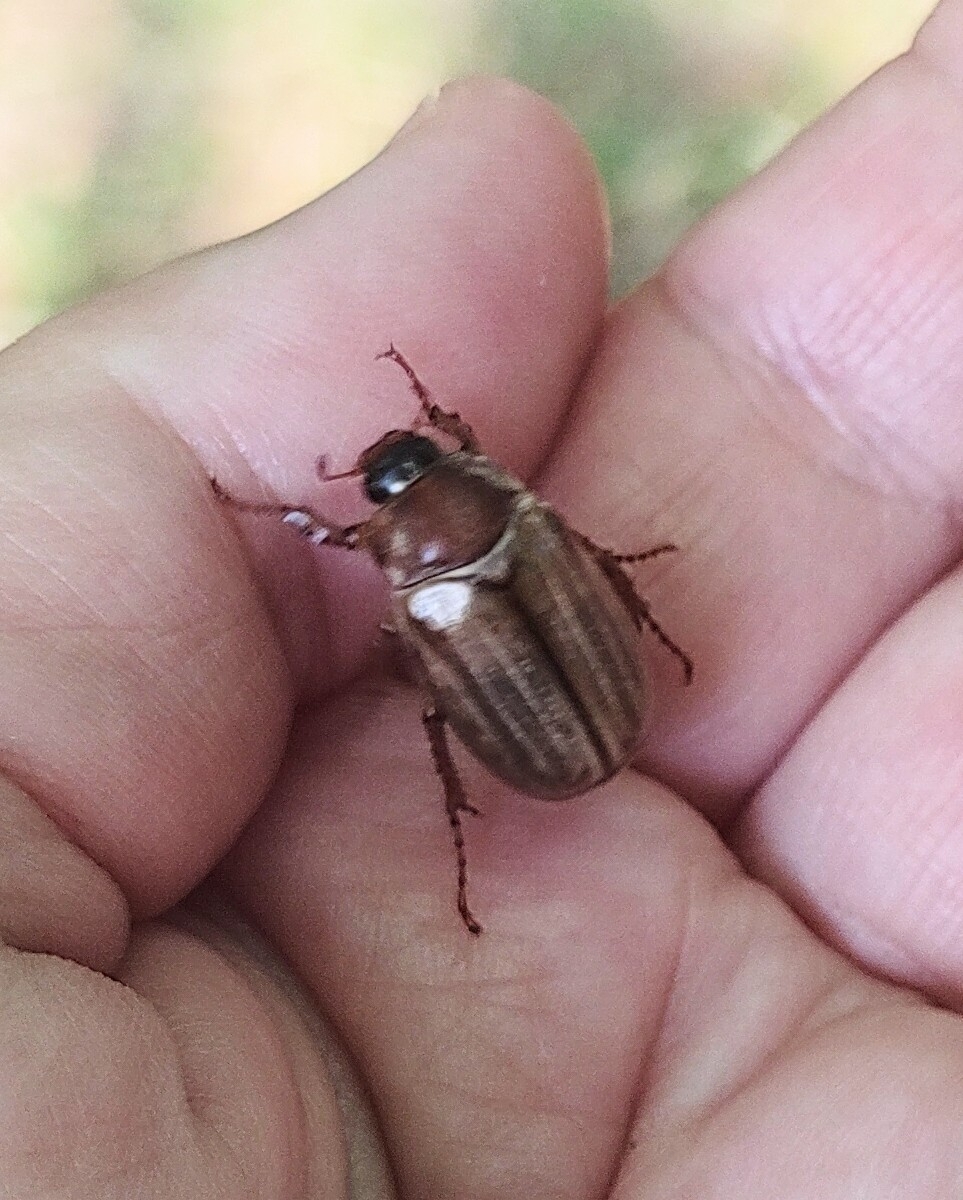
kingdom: Animalia
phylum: Arthropoda
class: Insecta
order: Coleoptera
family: Scarabaeidae
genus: Amphimallon
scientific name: Amphimallon solstitiale
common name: Summer chafer
